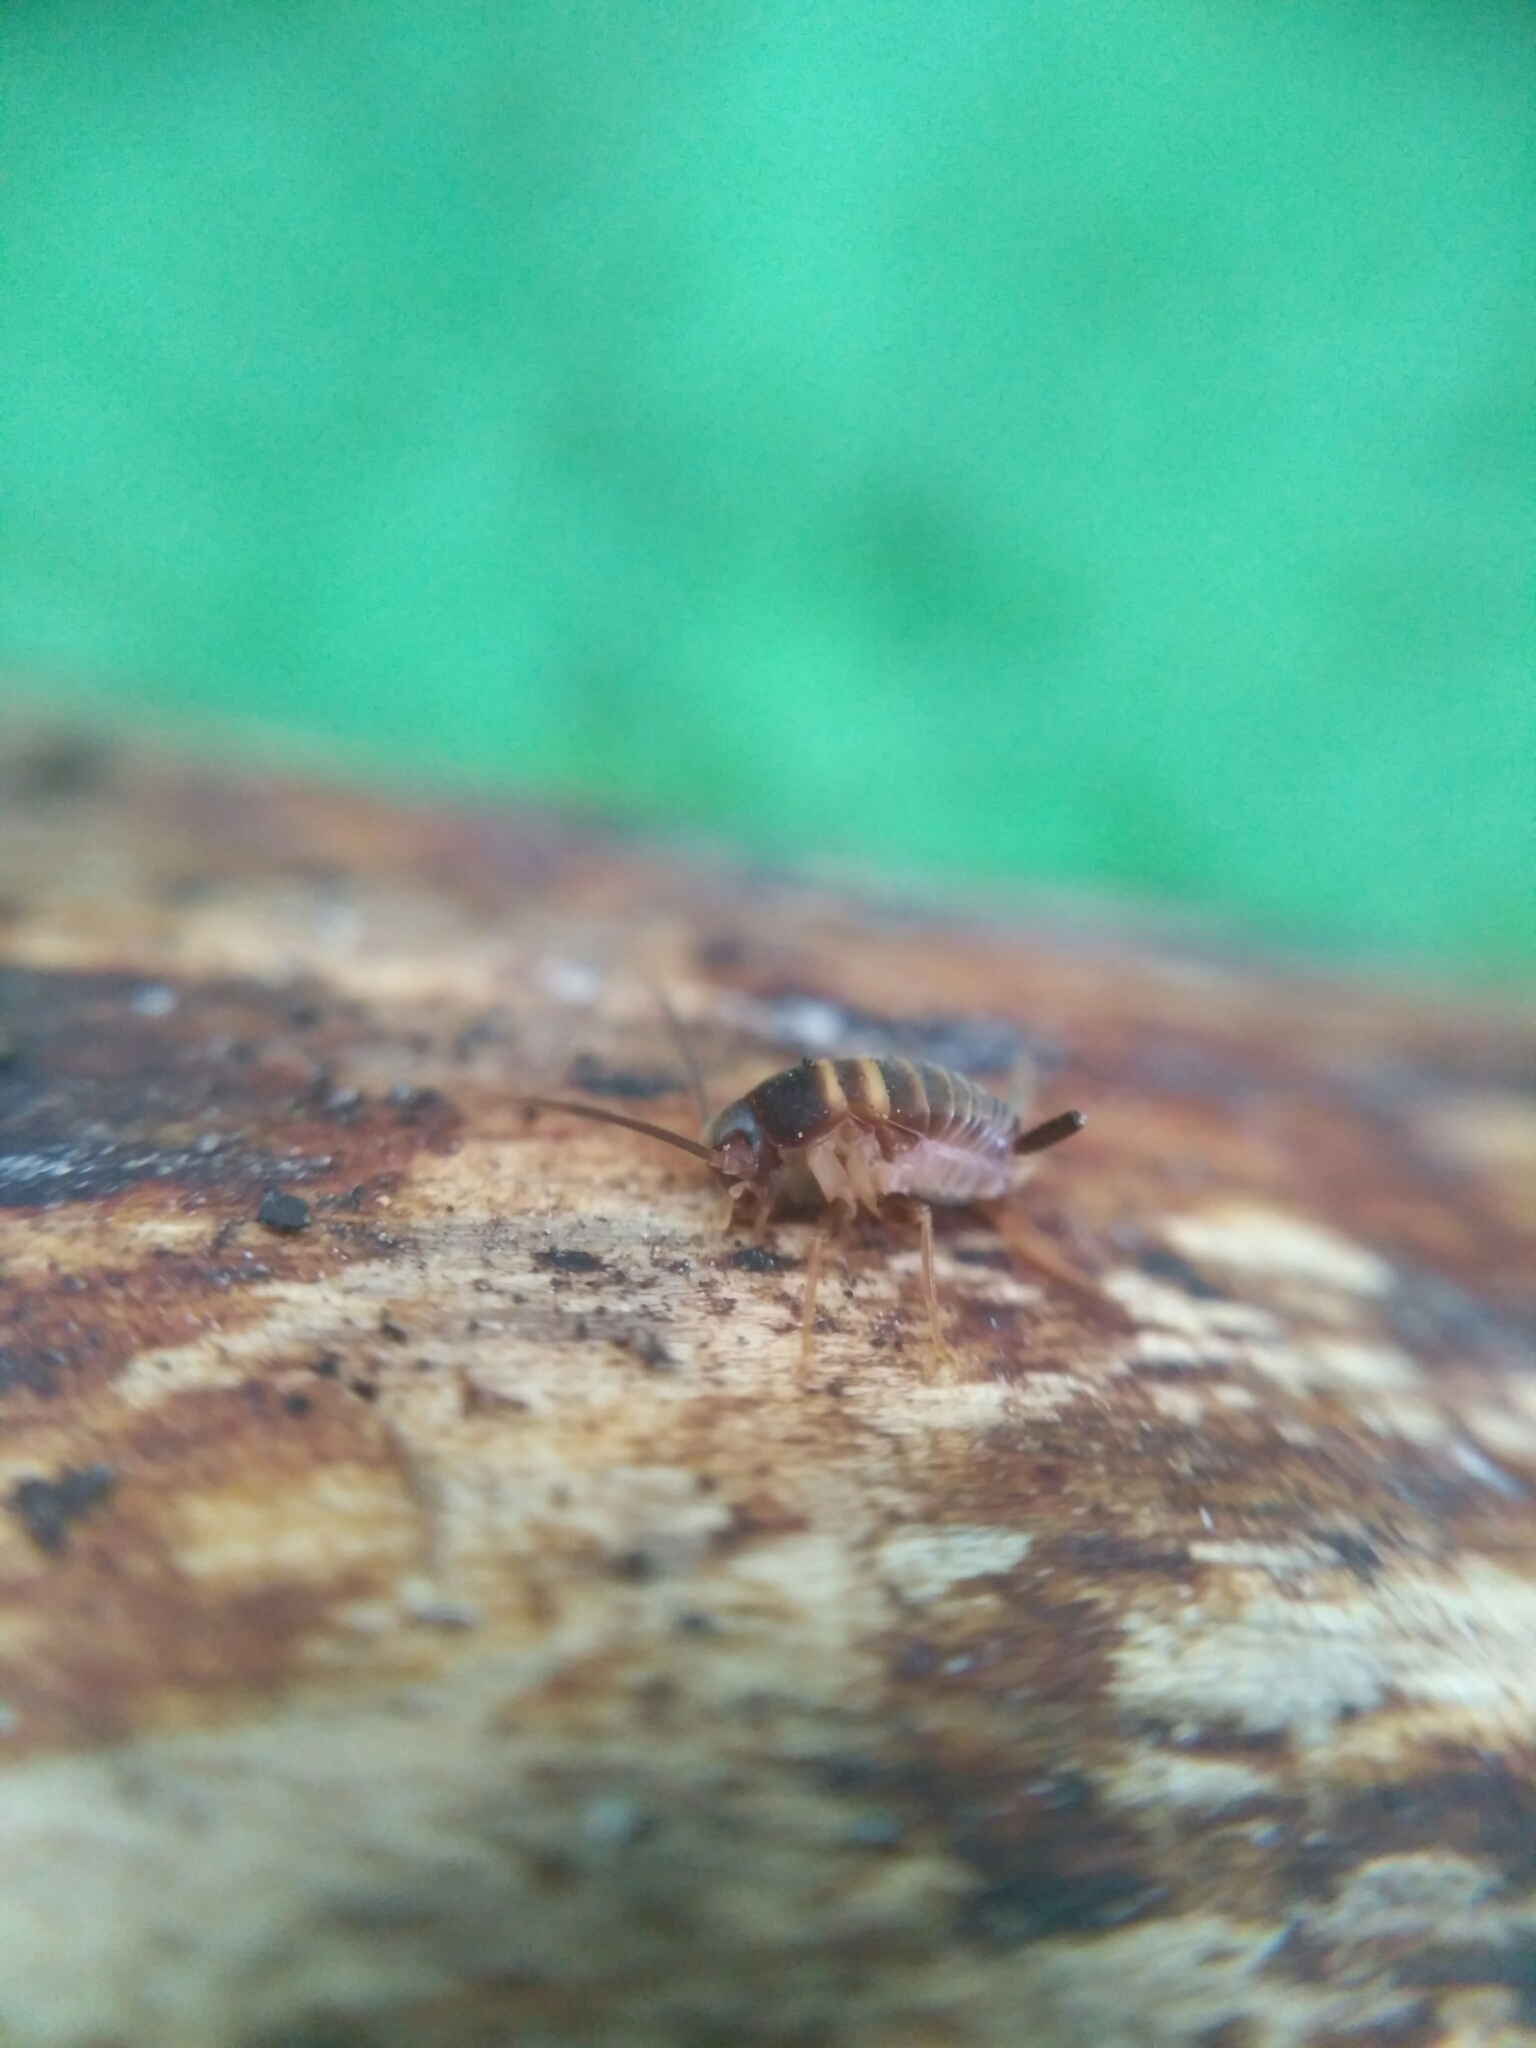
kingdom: Animalia
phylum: Arthropoda
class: Insecta
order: Orthoptera
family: Myrmecophilidae
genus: Myrmecophilus
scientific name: Myrmecophilus acervorum
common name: Ants-nest cricket
